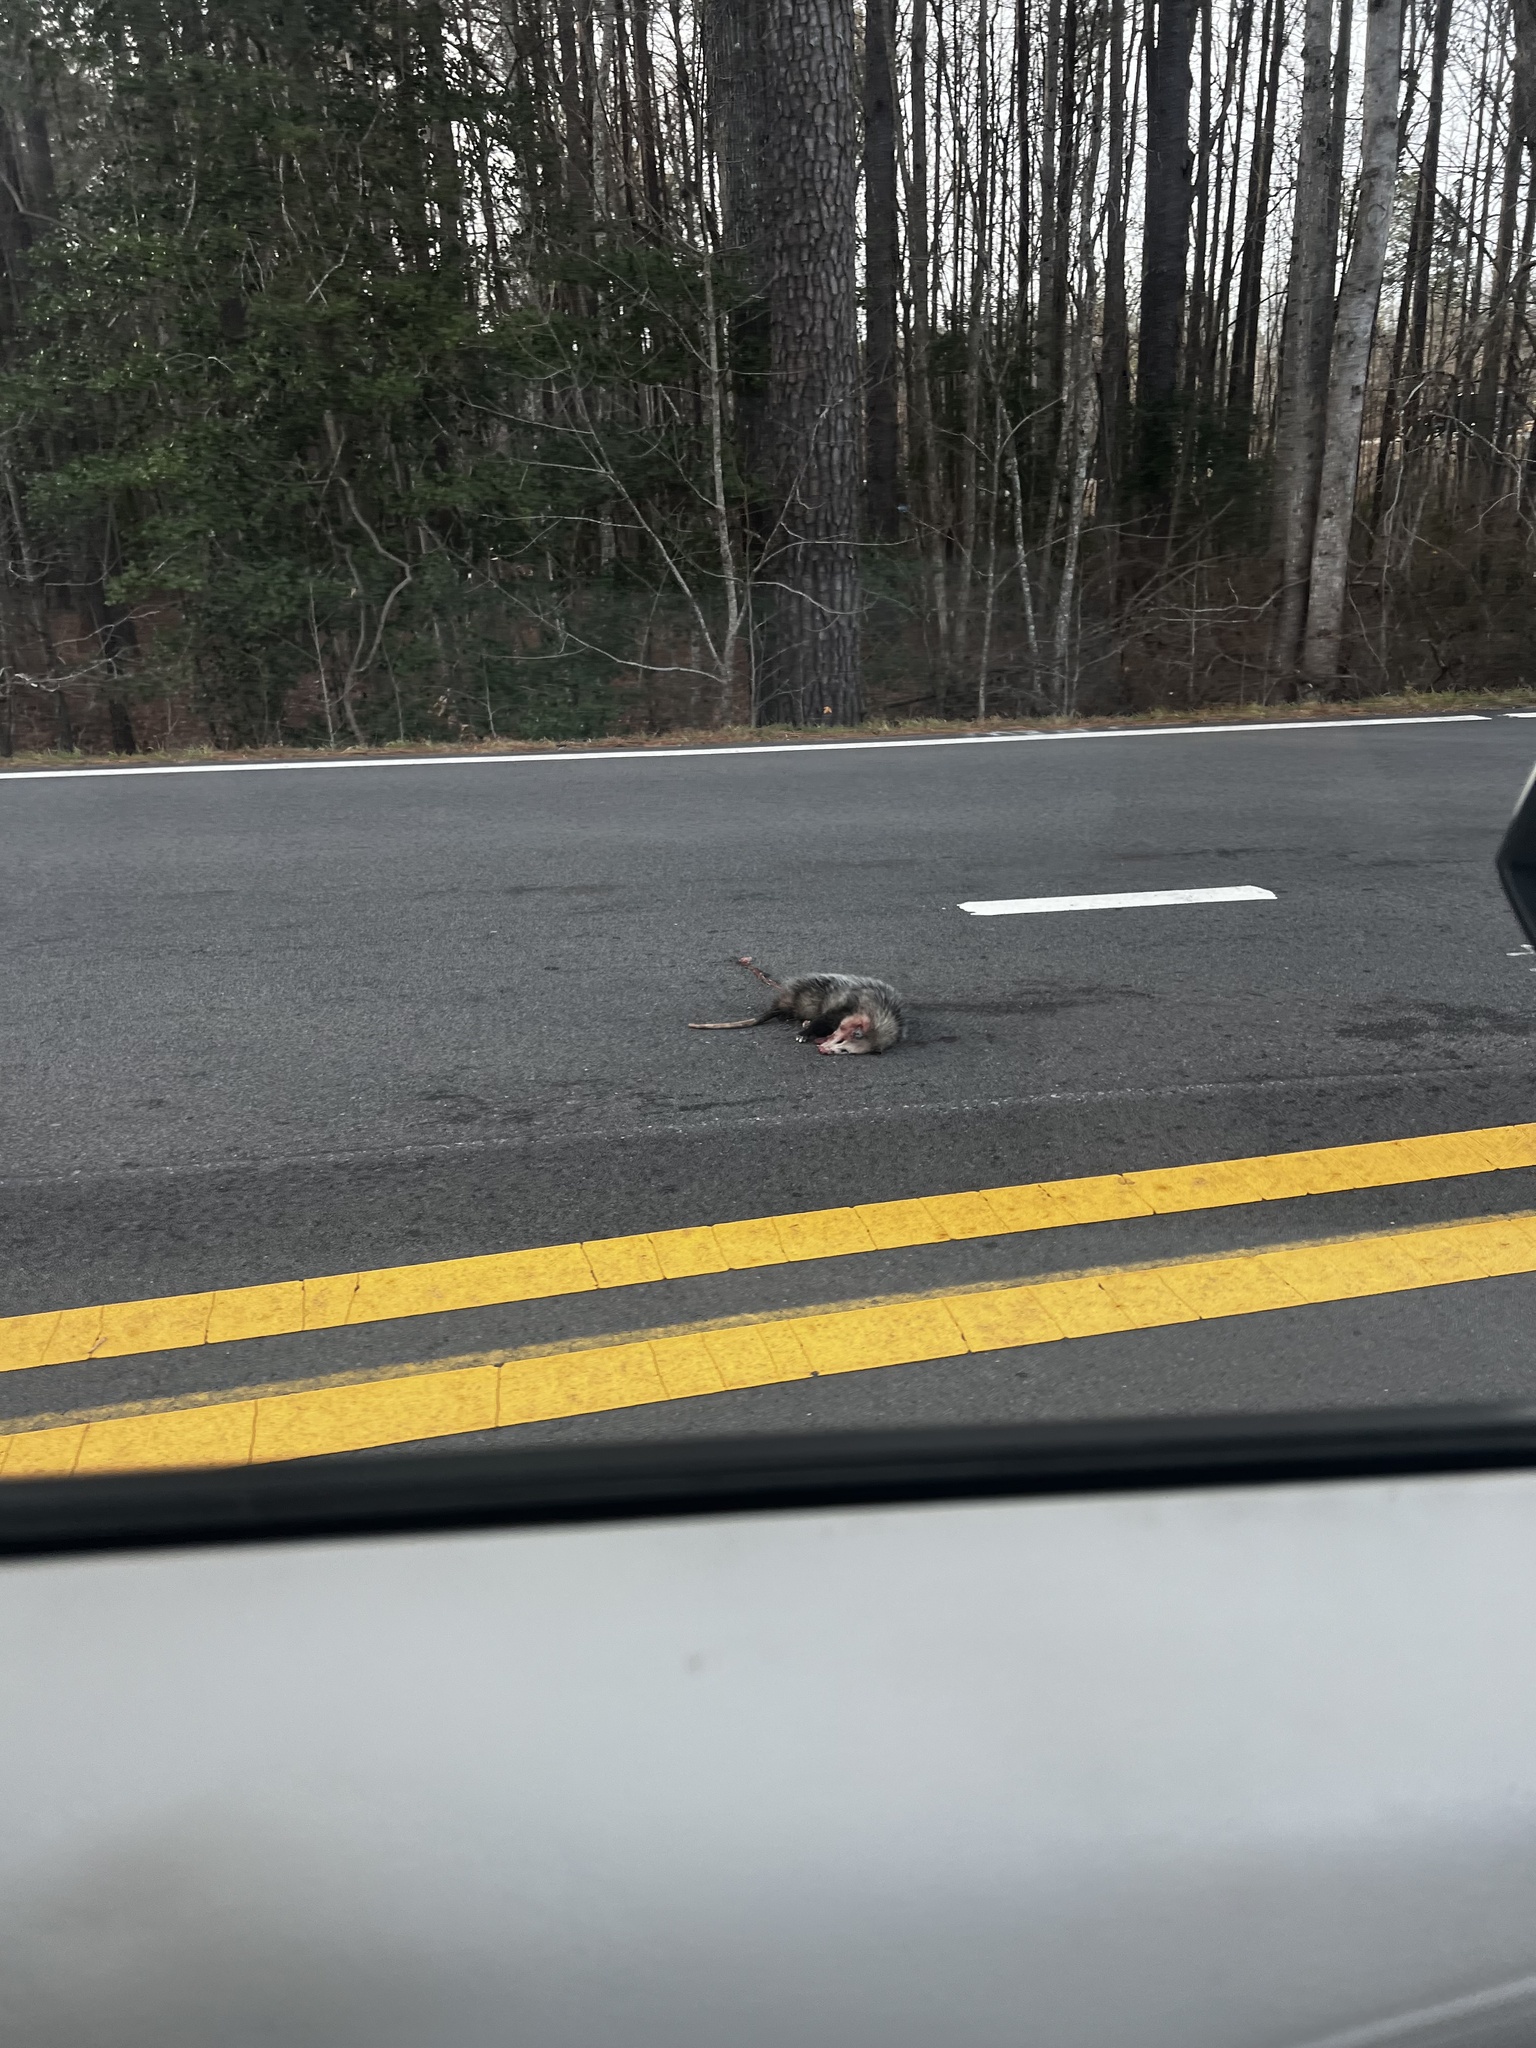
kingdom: Animalia
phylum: Chordata
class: Mammalia
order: Didelphimorphia
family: Didelphidae
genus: Didelphis
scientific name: Didelphis virginiana
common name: Virginia opossum
